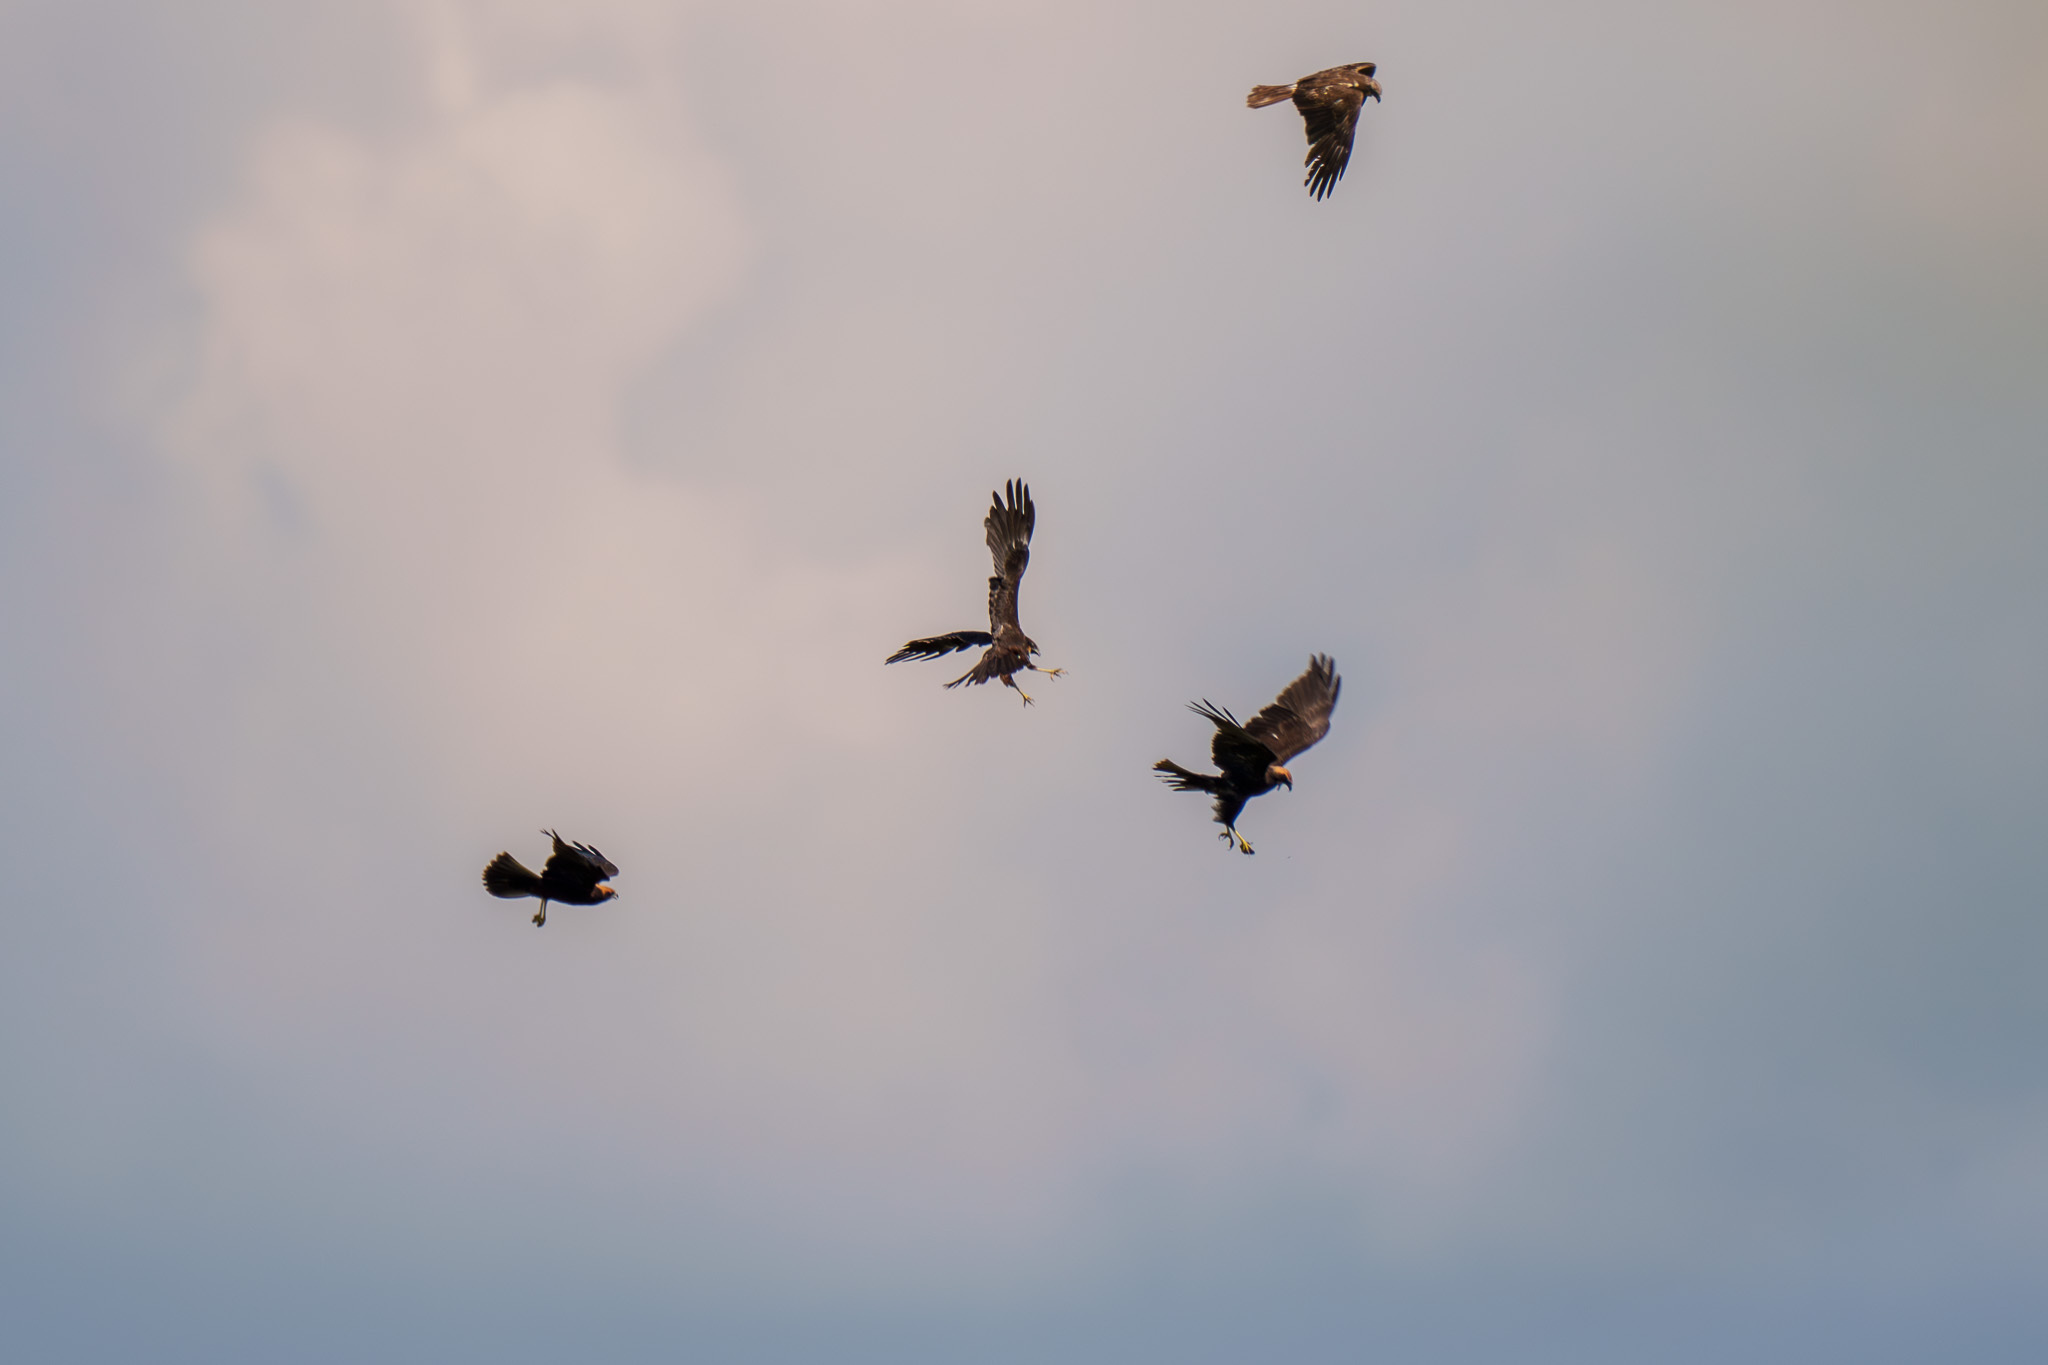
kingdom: Animalia
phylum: Chordata
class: Aves
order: Accipitriformes
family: Accipitridae
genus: Circus
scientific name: Circus aeruginosus
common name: Western marsh harrier
